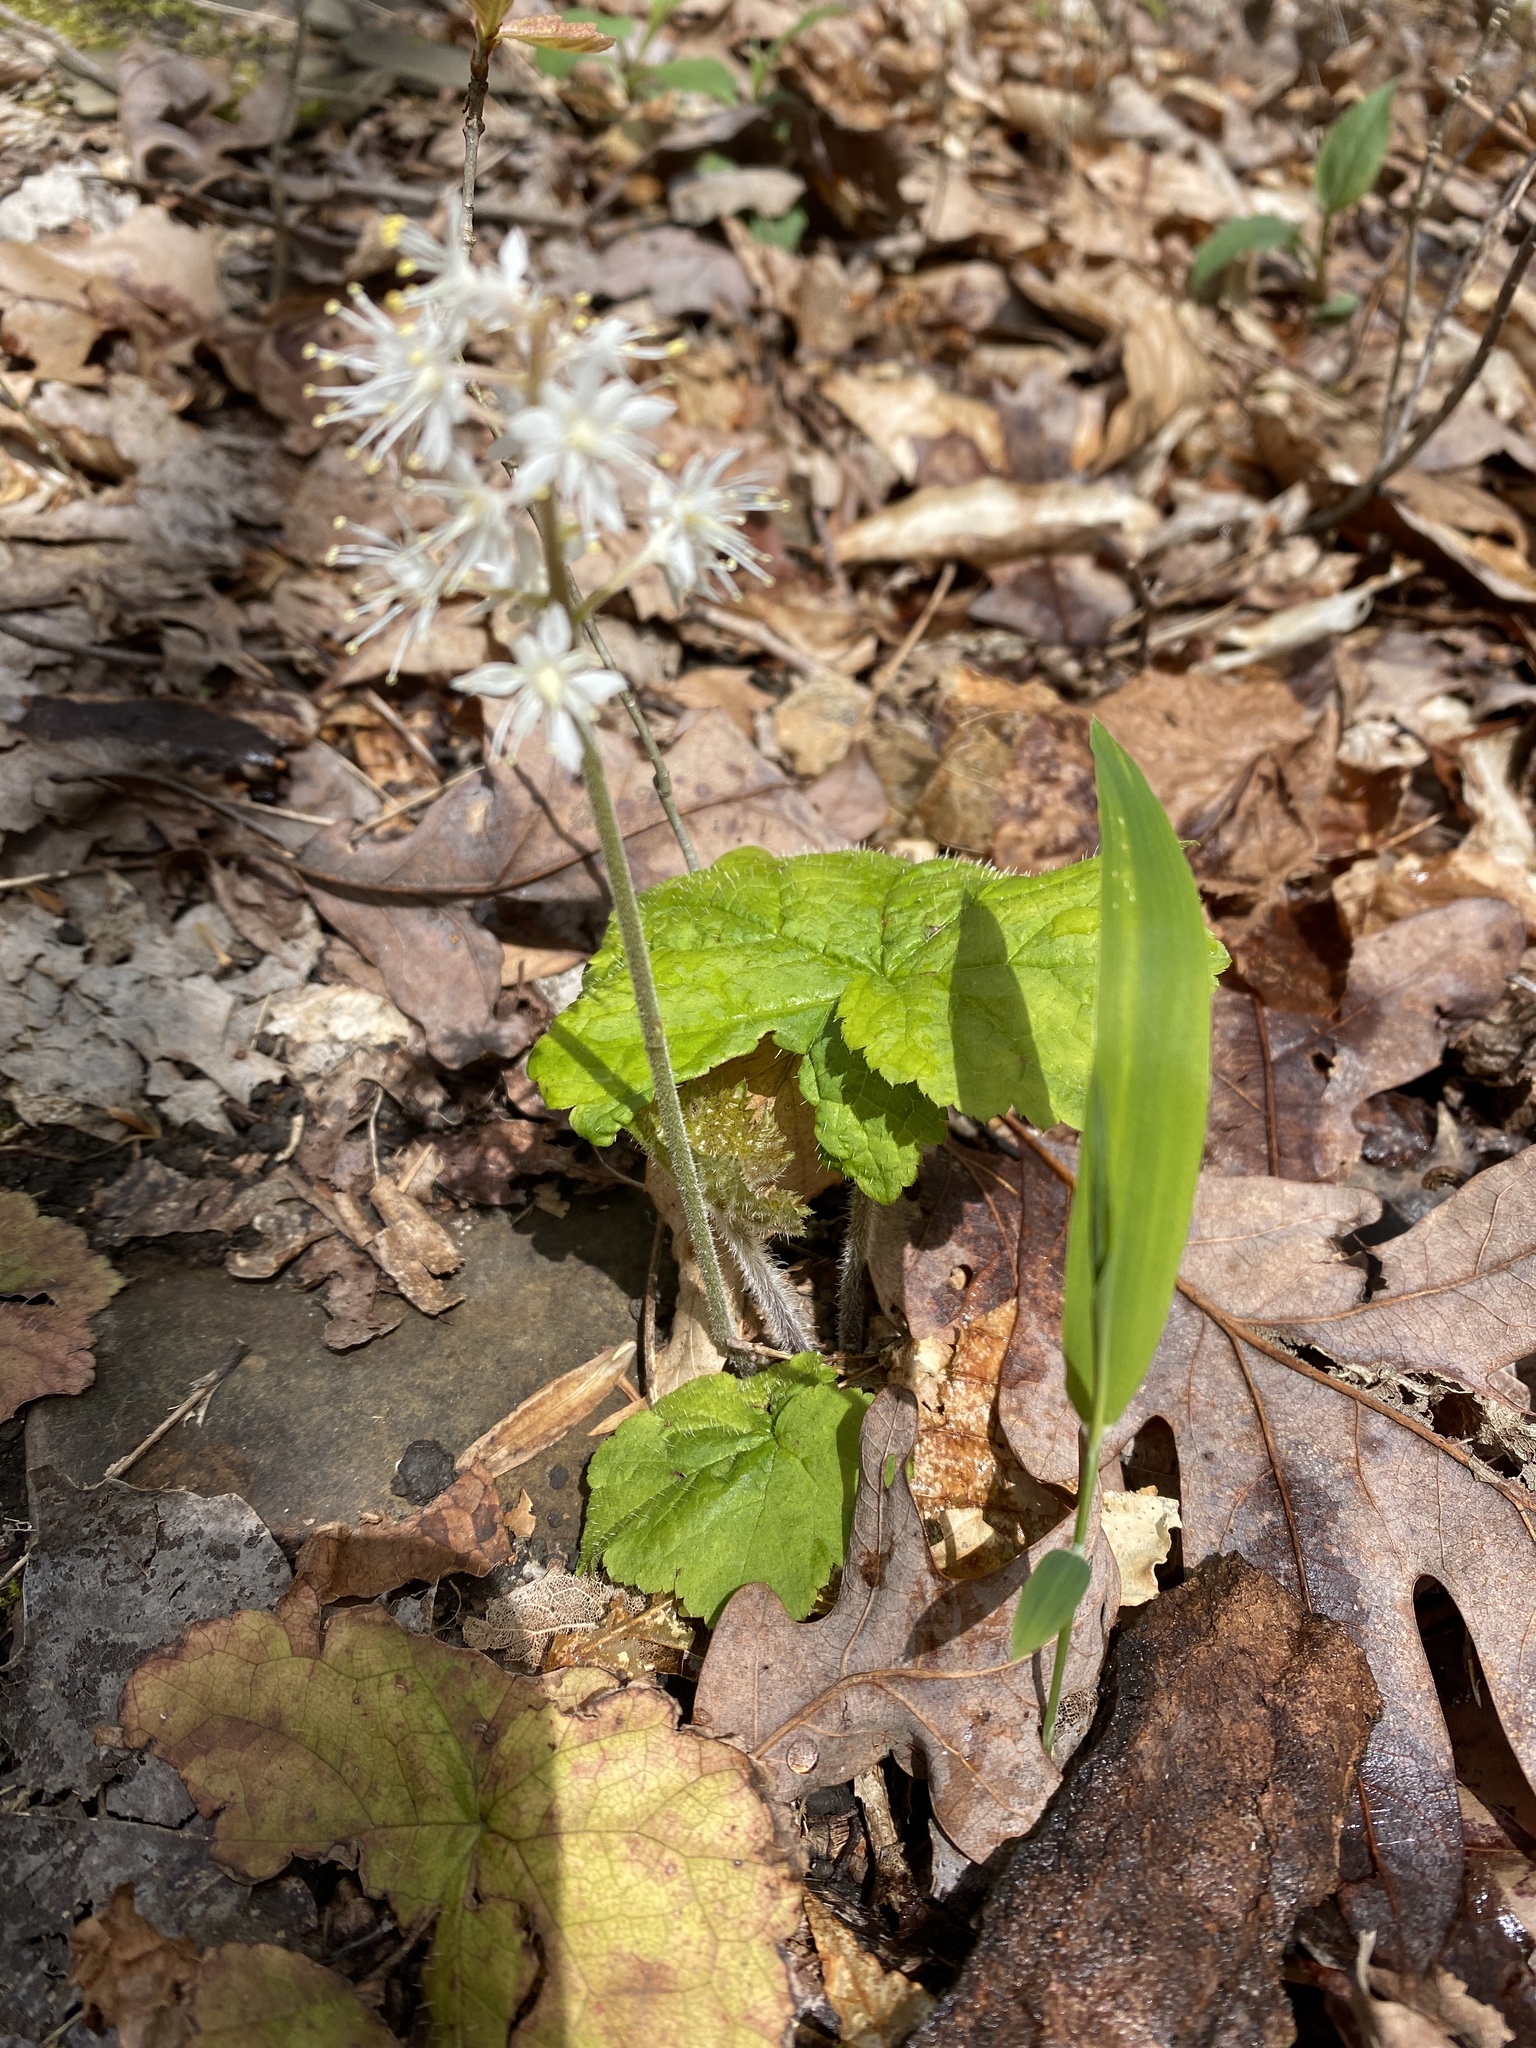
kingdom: Plantae
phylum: Tracheophyta
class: Magnoliopsida
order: Saxifragales
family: Saxifragaceae
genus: Tiarella
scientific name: Tiarella stolonifera
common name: Stoloniferous foamflower
